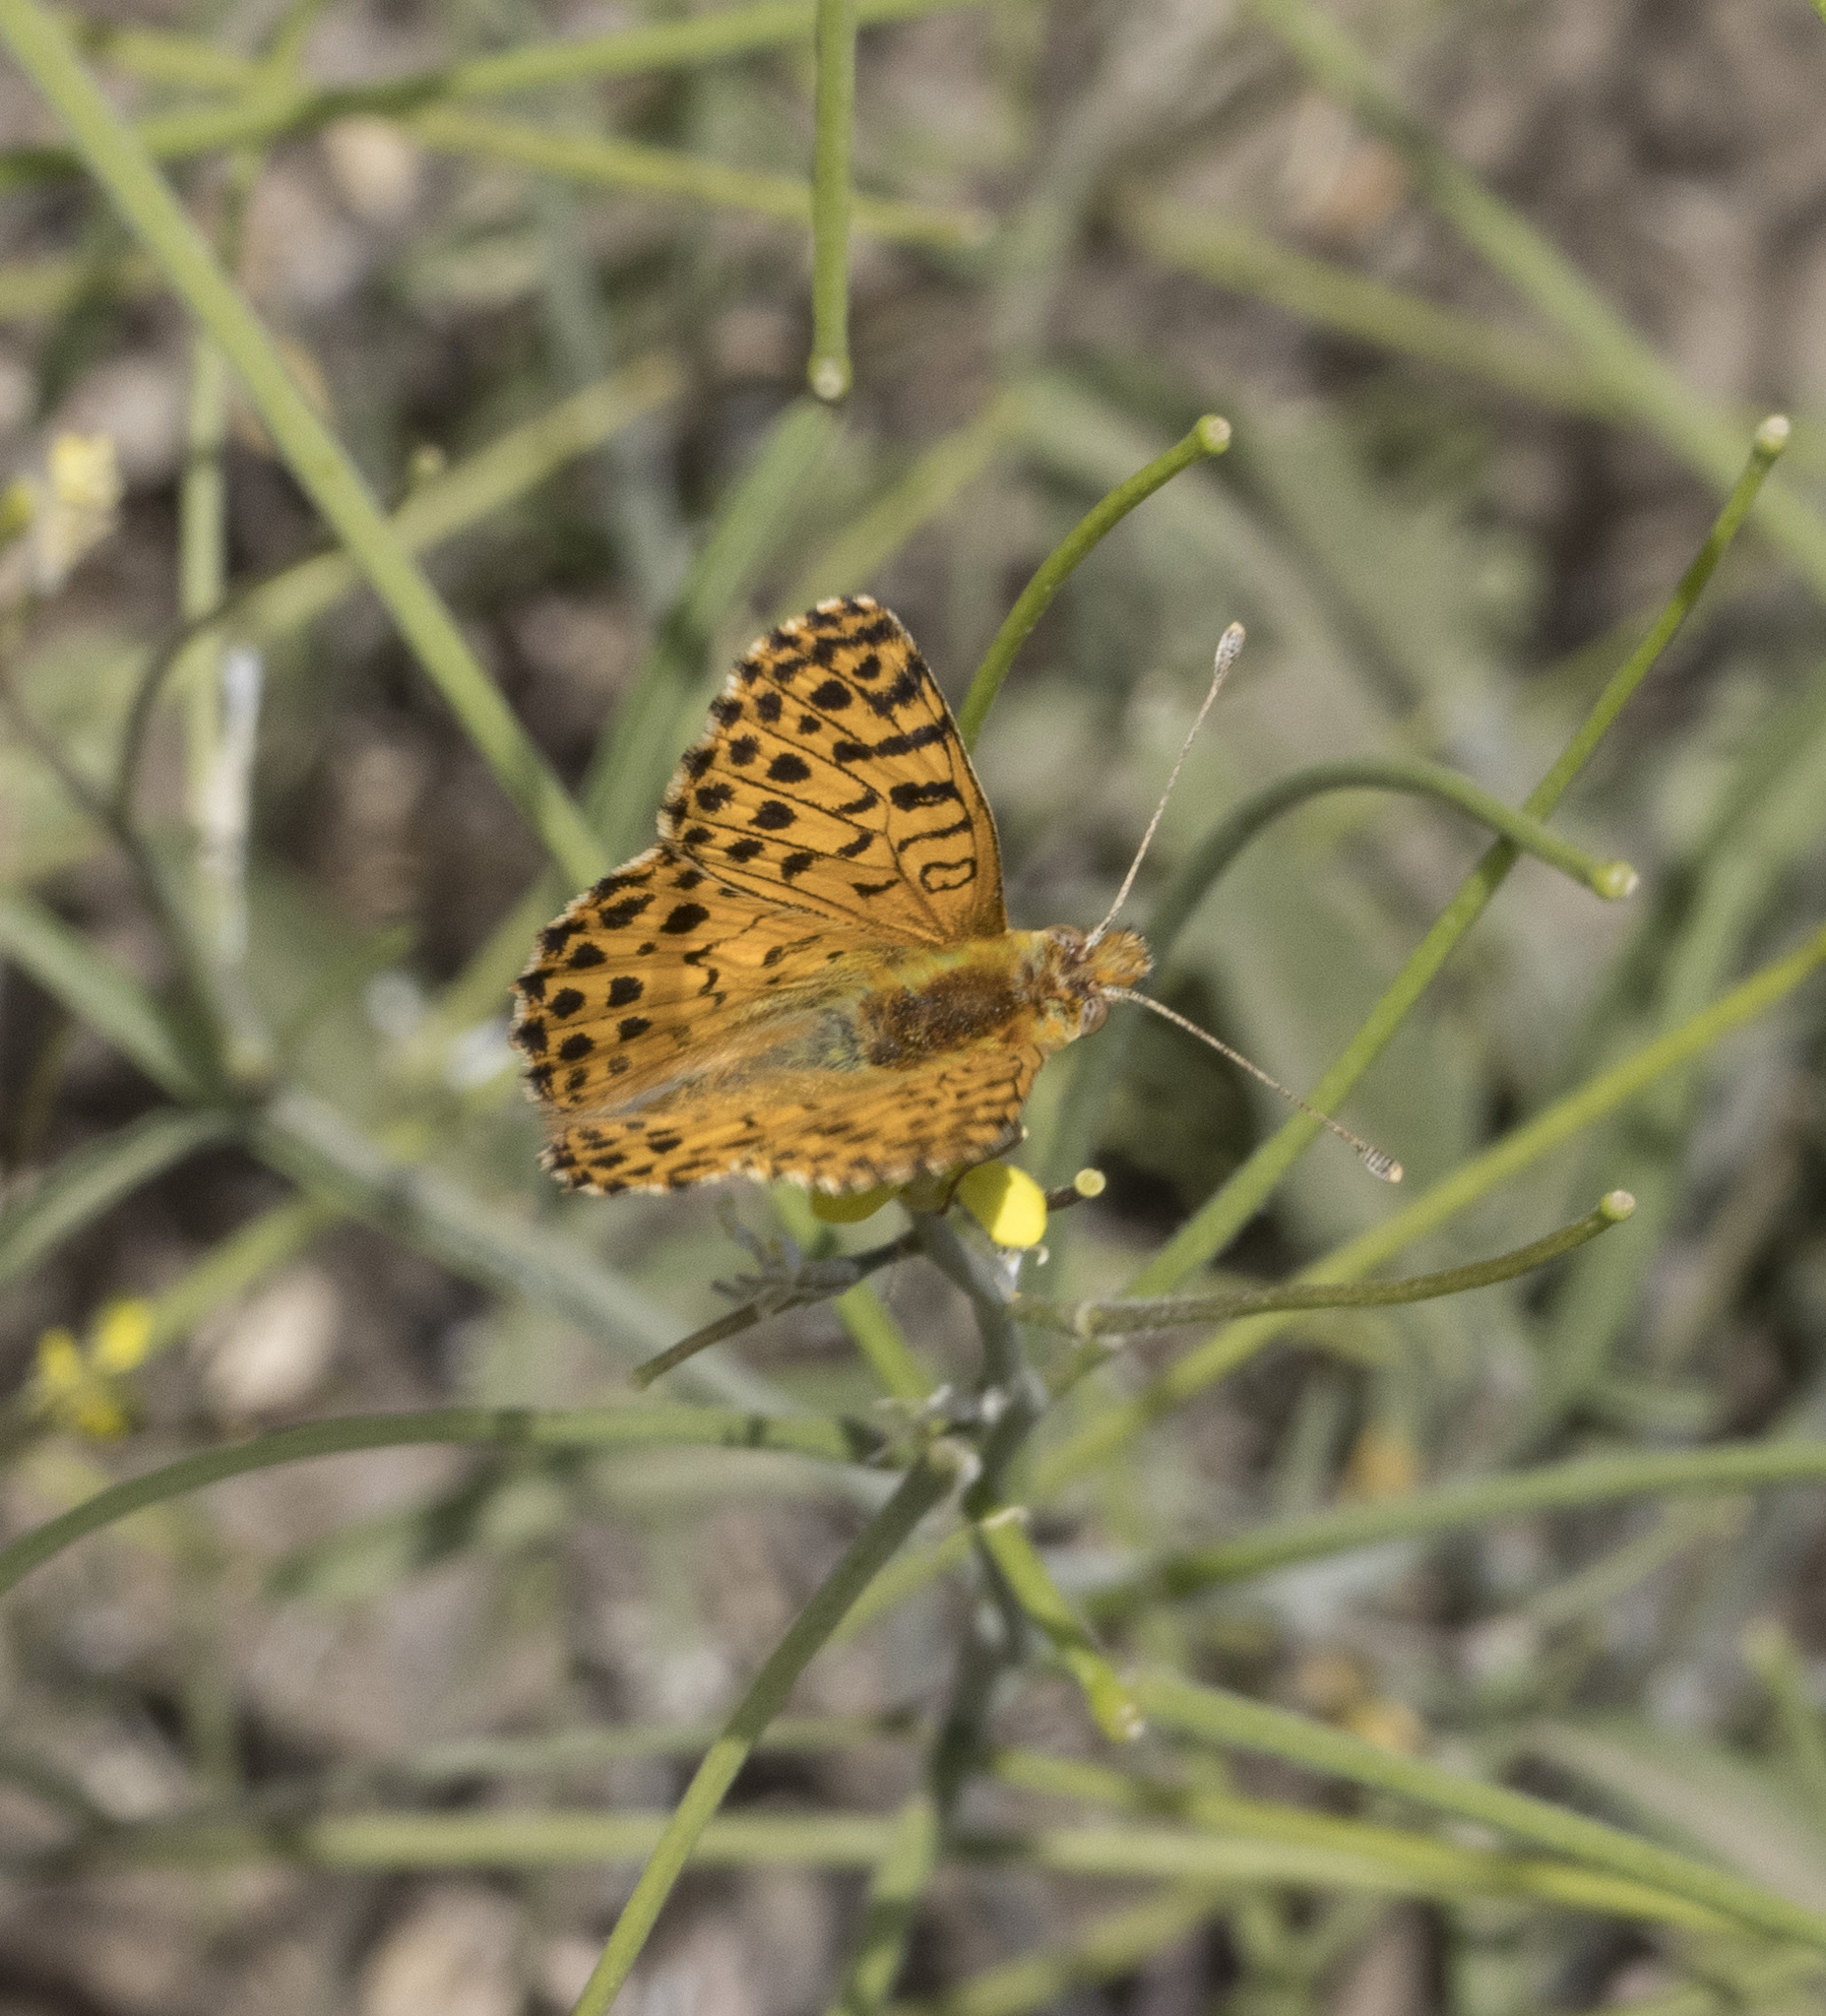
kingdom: Animalia
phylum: Arthropoda
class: Insecta
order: Lepidoptera
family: Nymphalidae
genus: Issoria
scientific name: Issoria Yramea lathonoides
